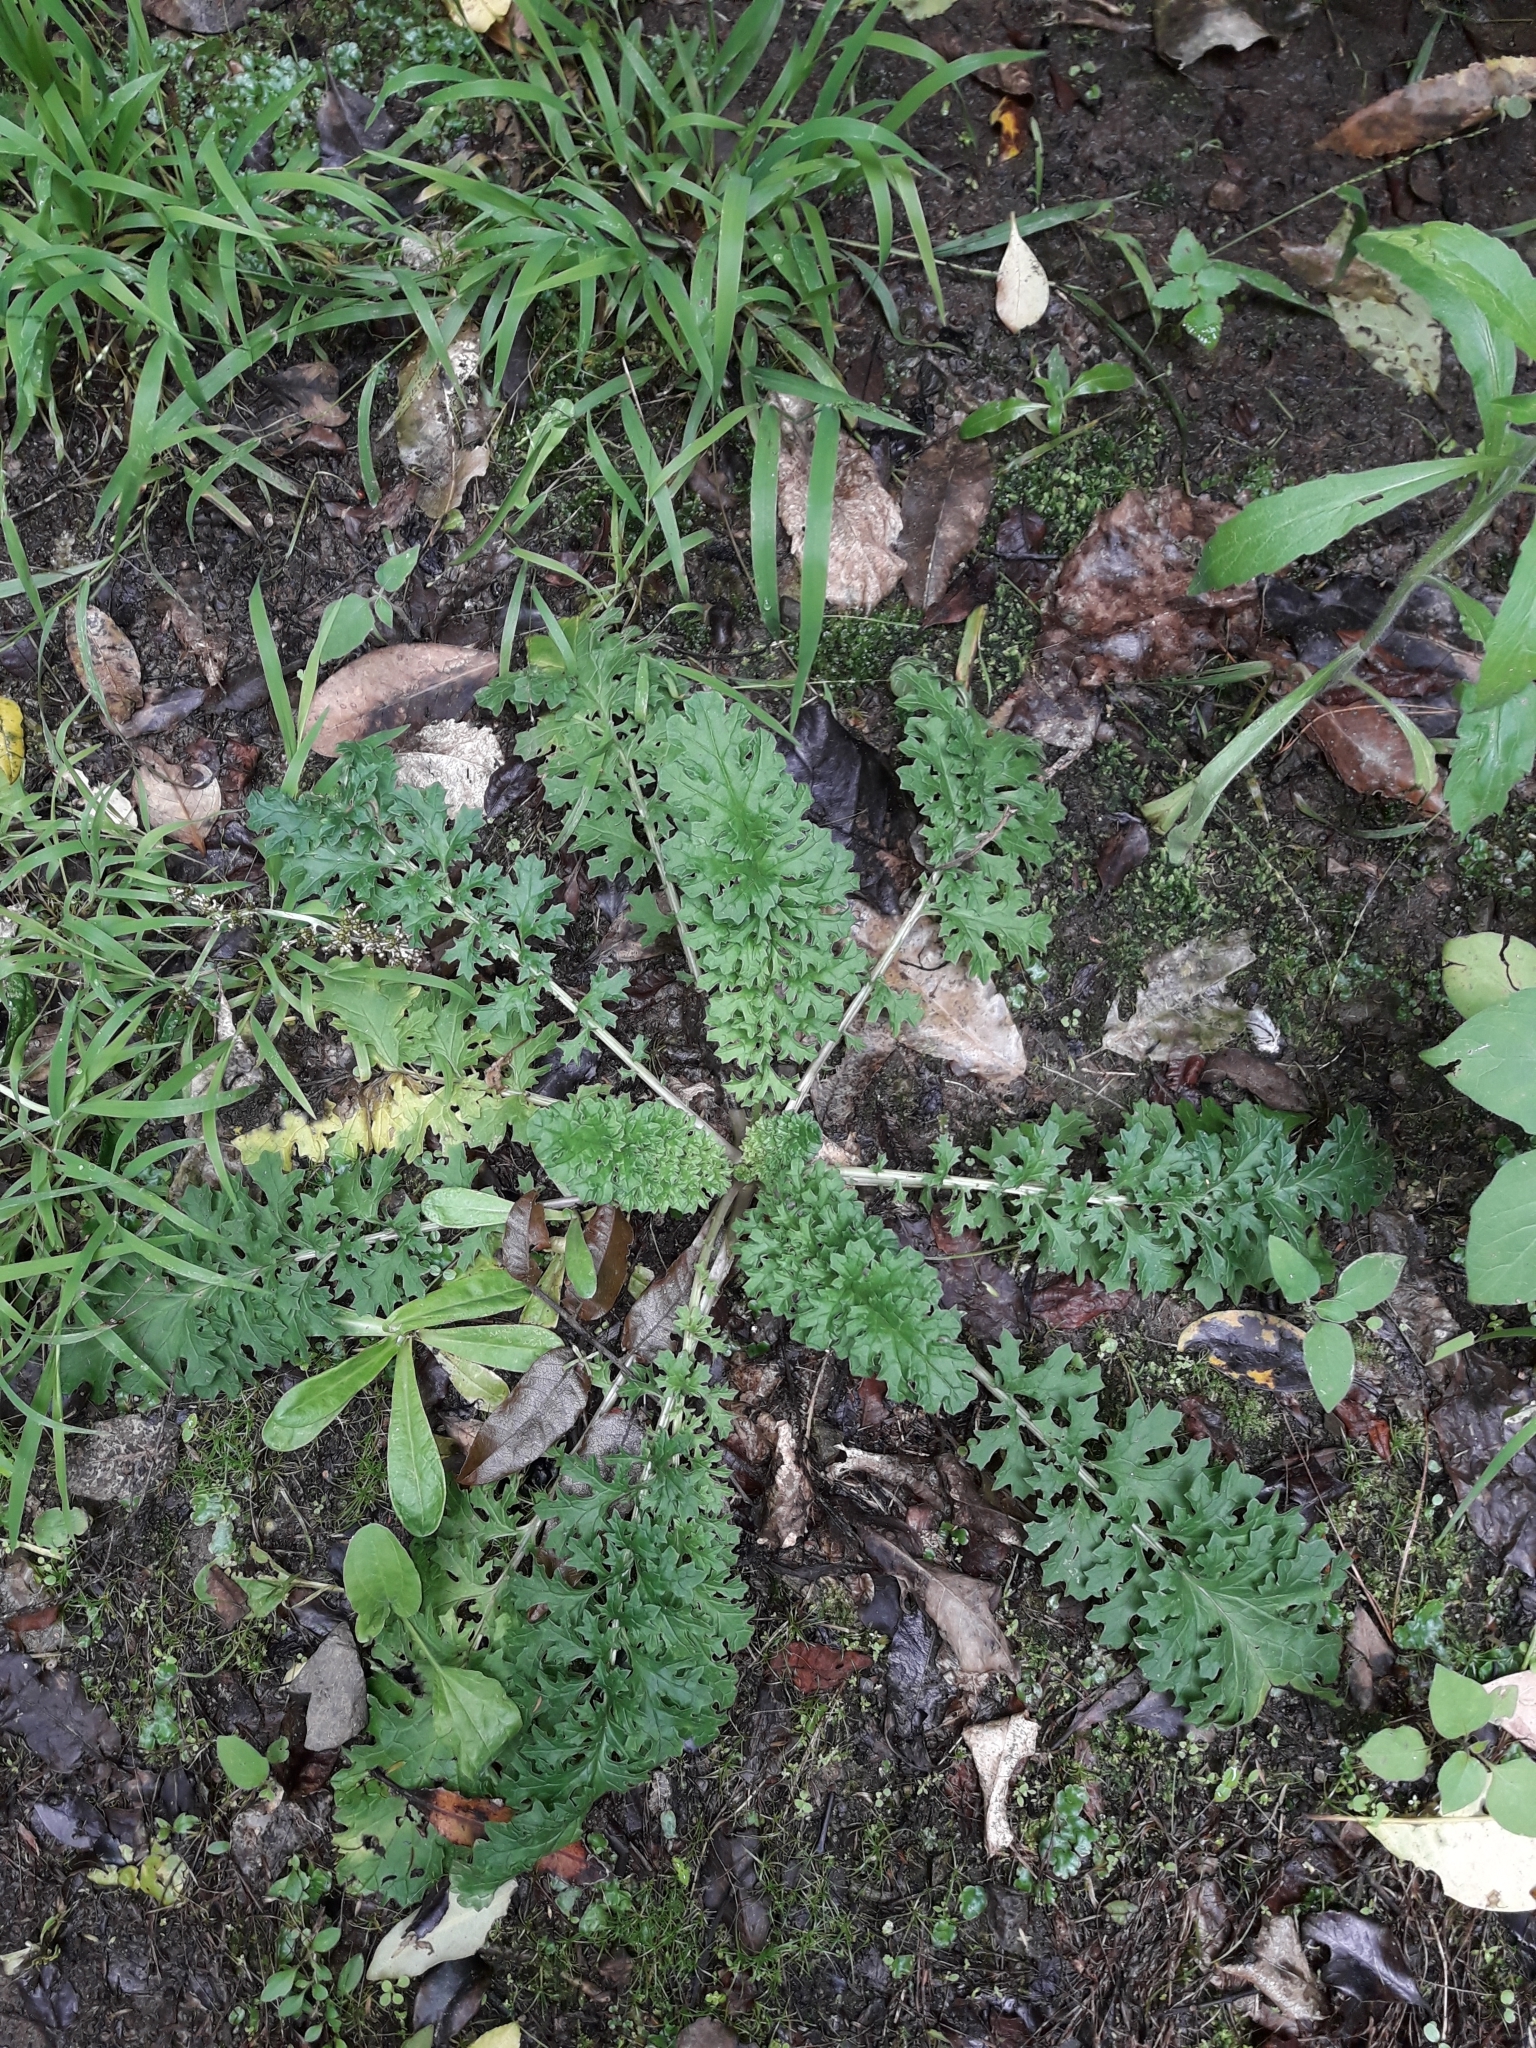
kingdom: Plantae
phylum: Tracheophyta
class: Magnoliopsida
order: Asterales
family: Asteraceae
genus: Jacobaea
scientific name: Jacobaea vulgaris
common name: Stinking willie
